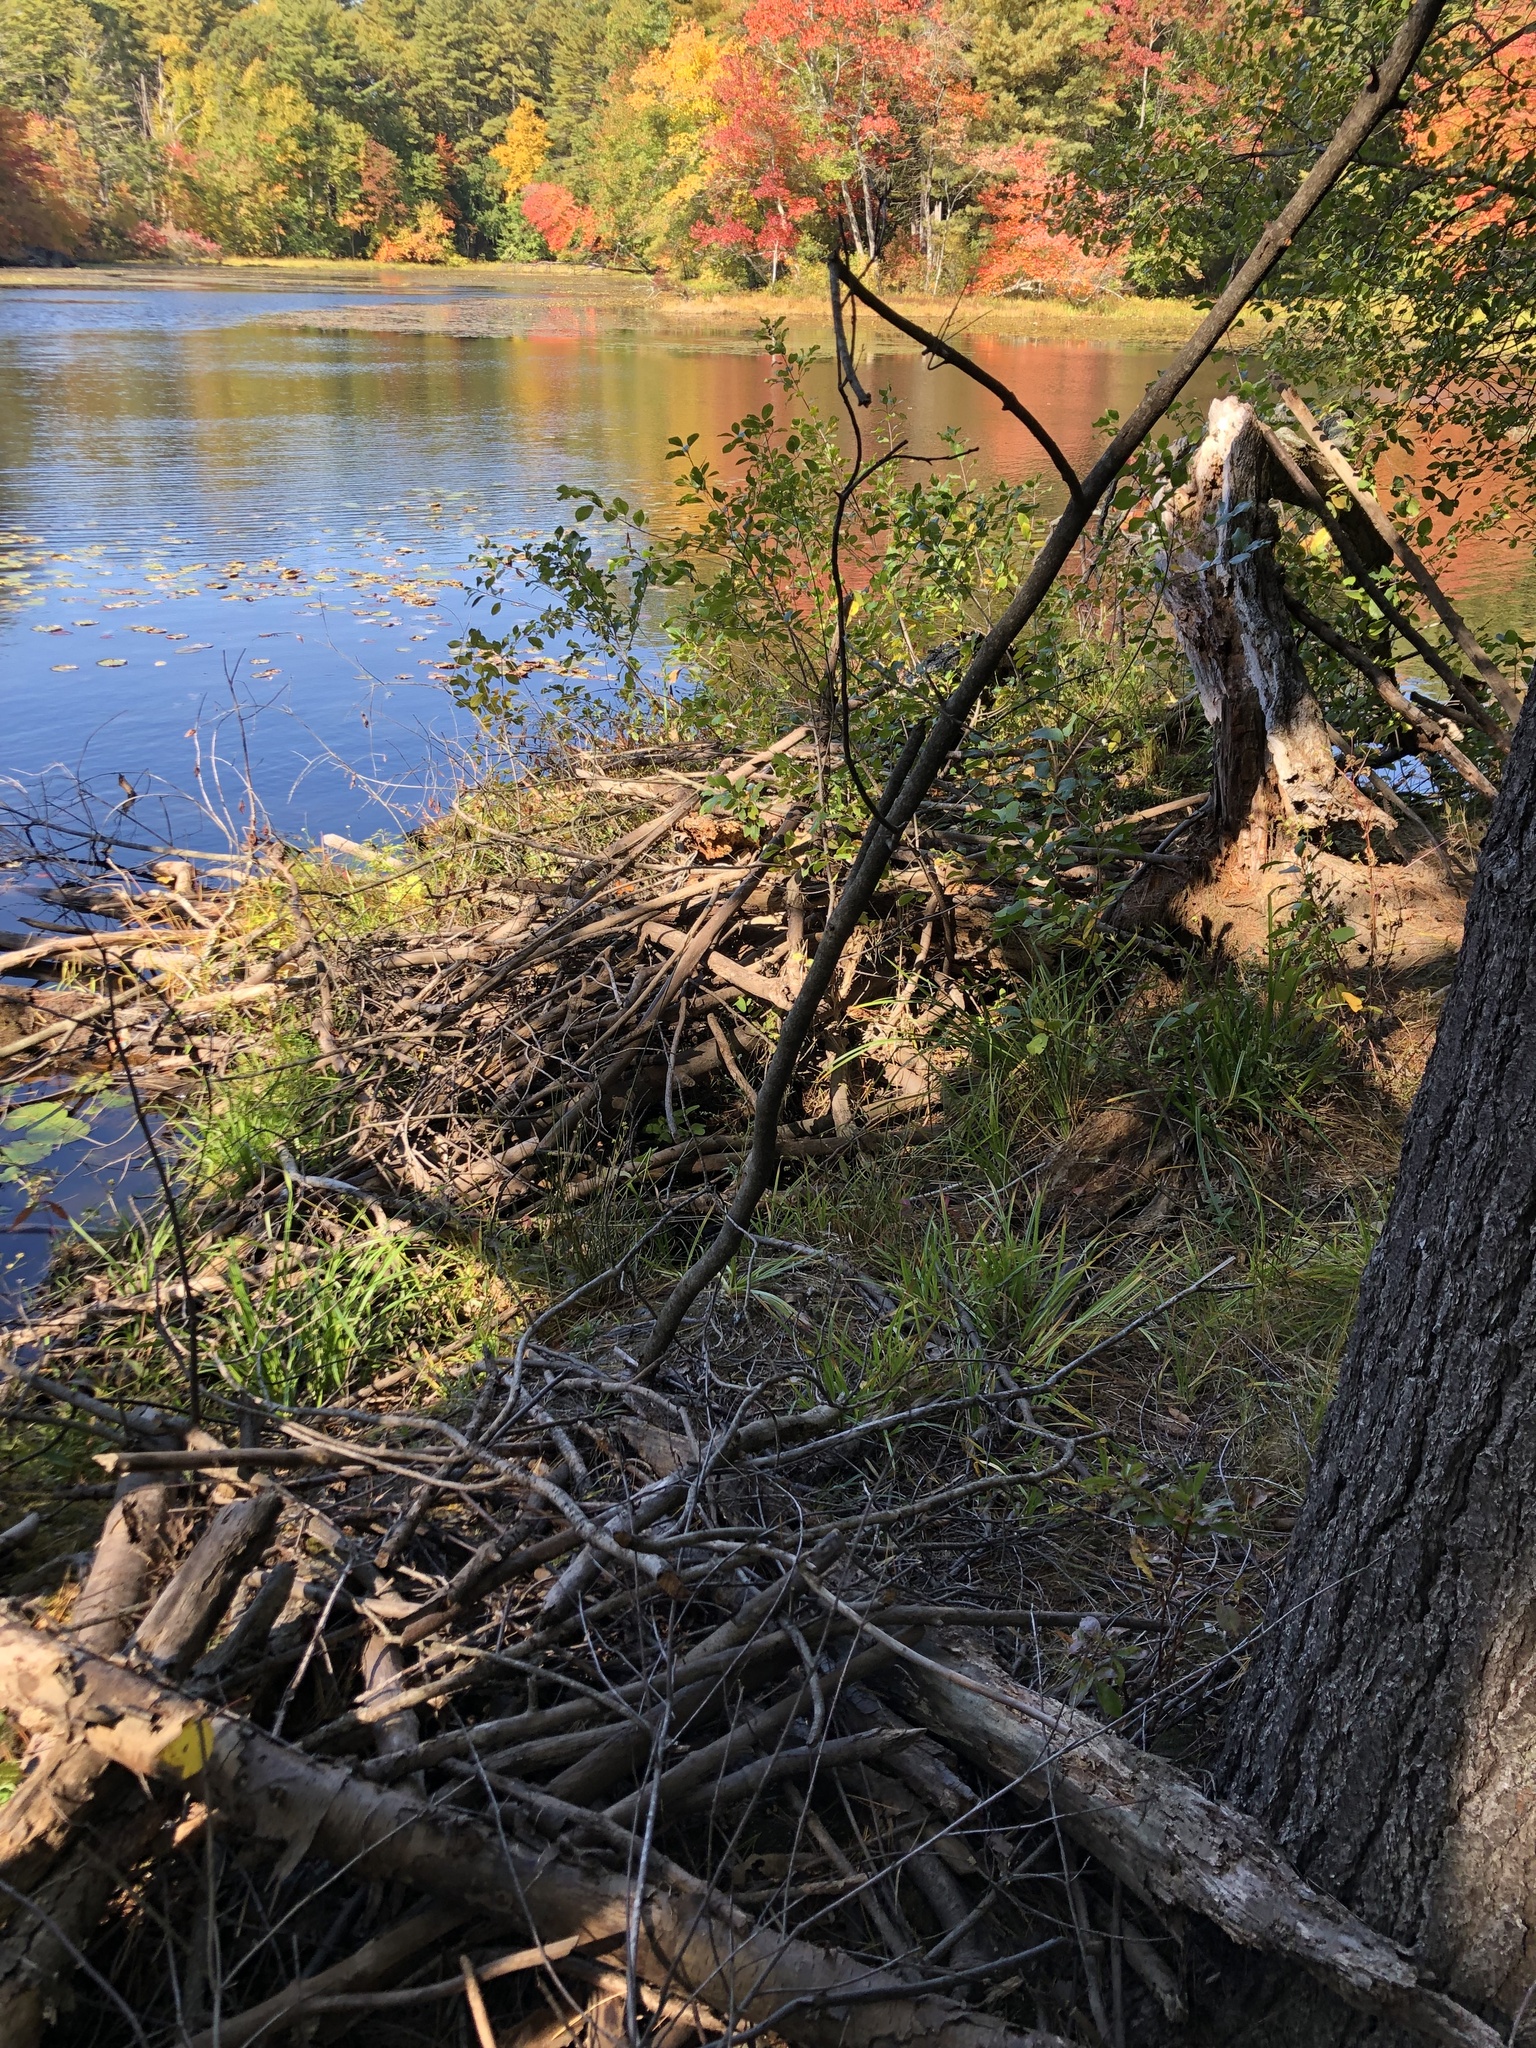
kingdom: Animalia
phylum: Chordata
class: Mammalia
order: Rodentia
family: Castoridae
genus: Castor
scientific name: Castor canadensis
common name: American beaver
